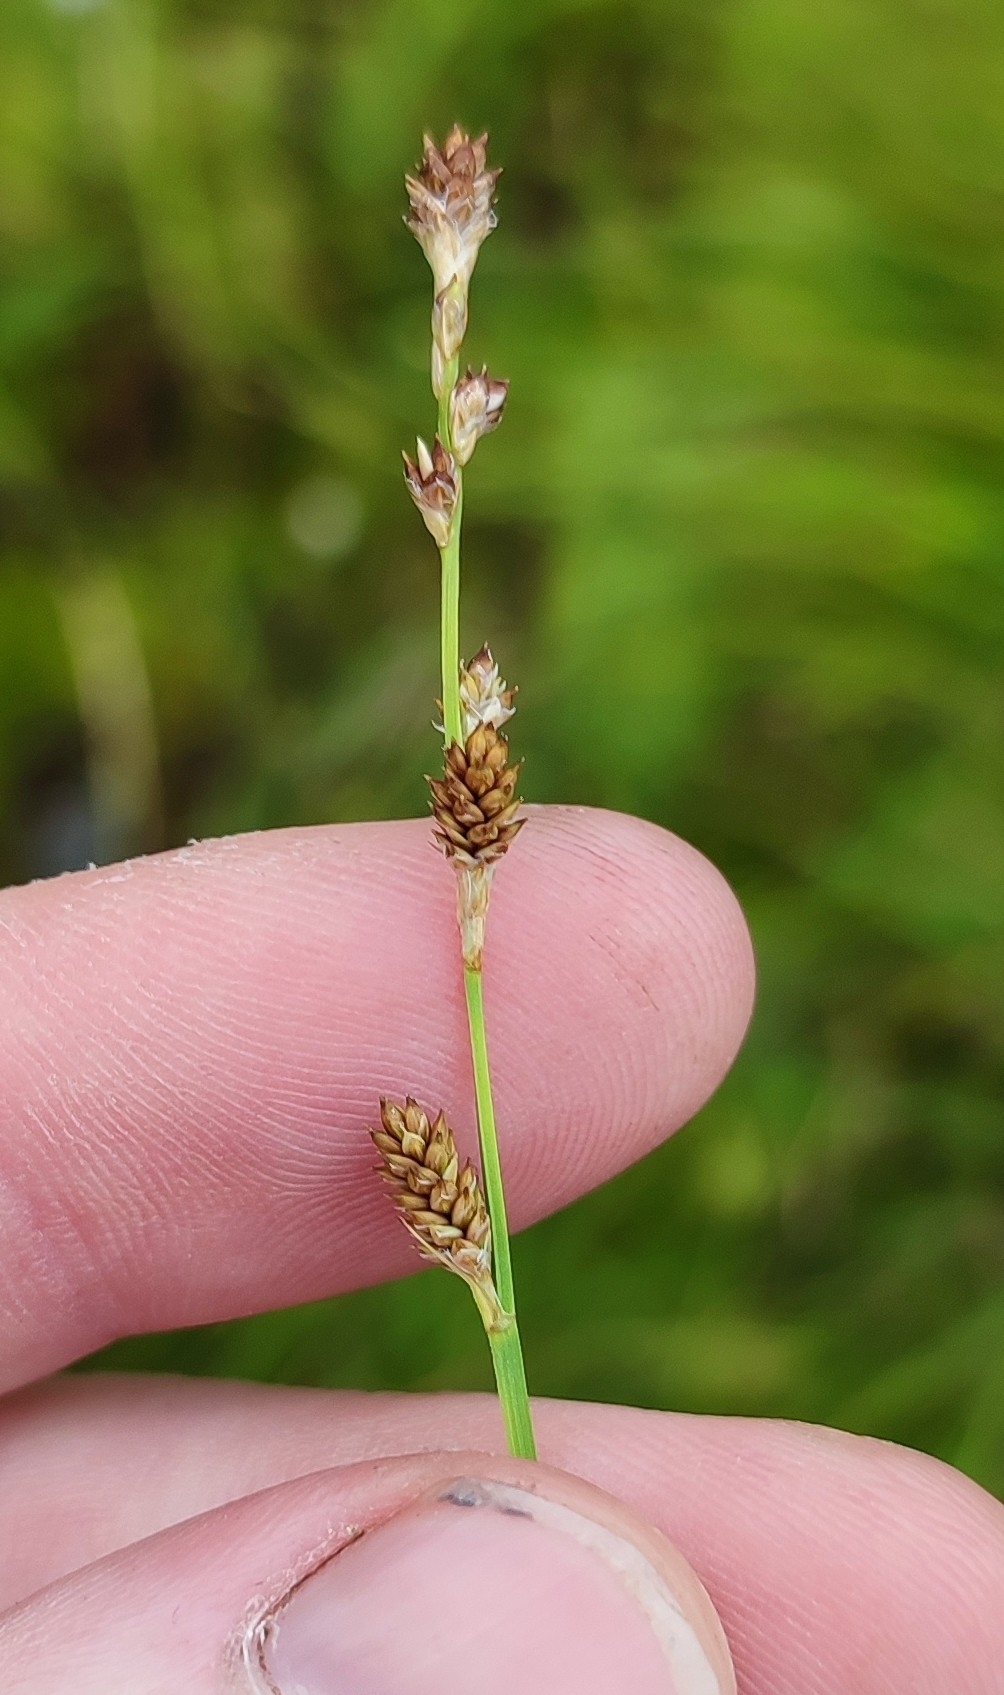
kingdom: Plantae
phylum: Tracheophyta
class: Liliopsida
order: Poales
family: Cyperaceae
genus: Carex
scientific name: Carex canescens
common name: White sedge
